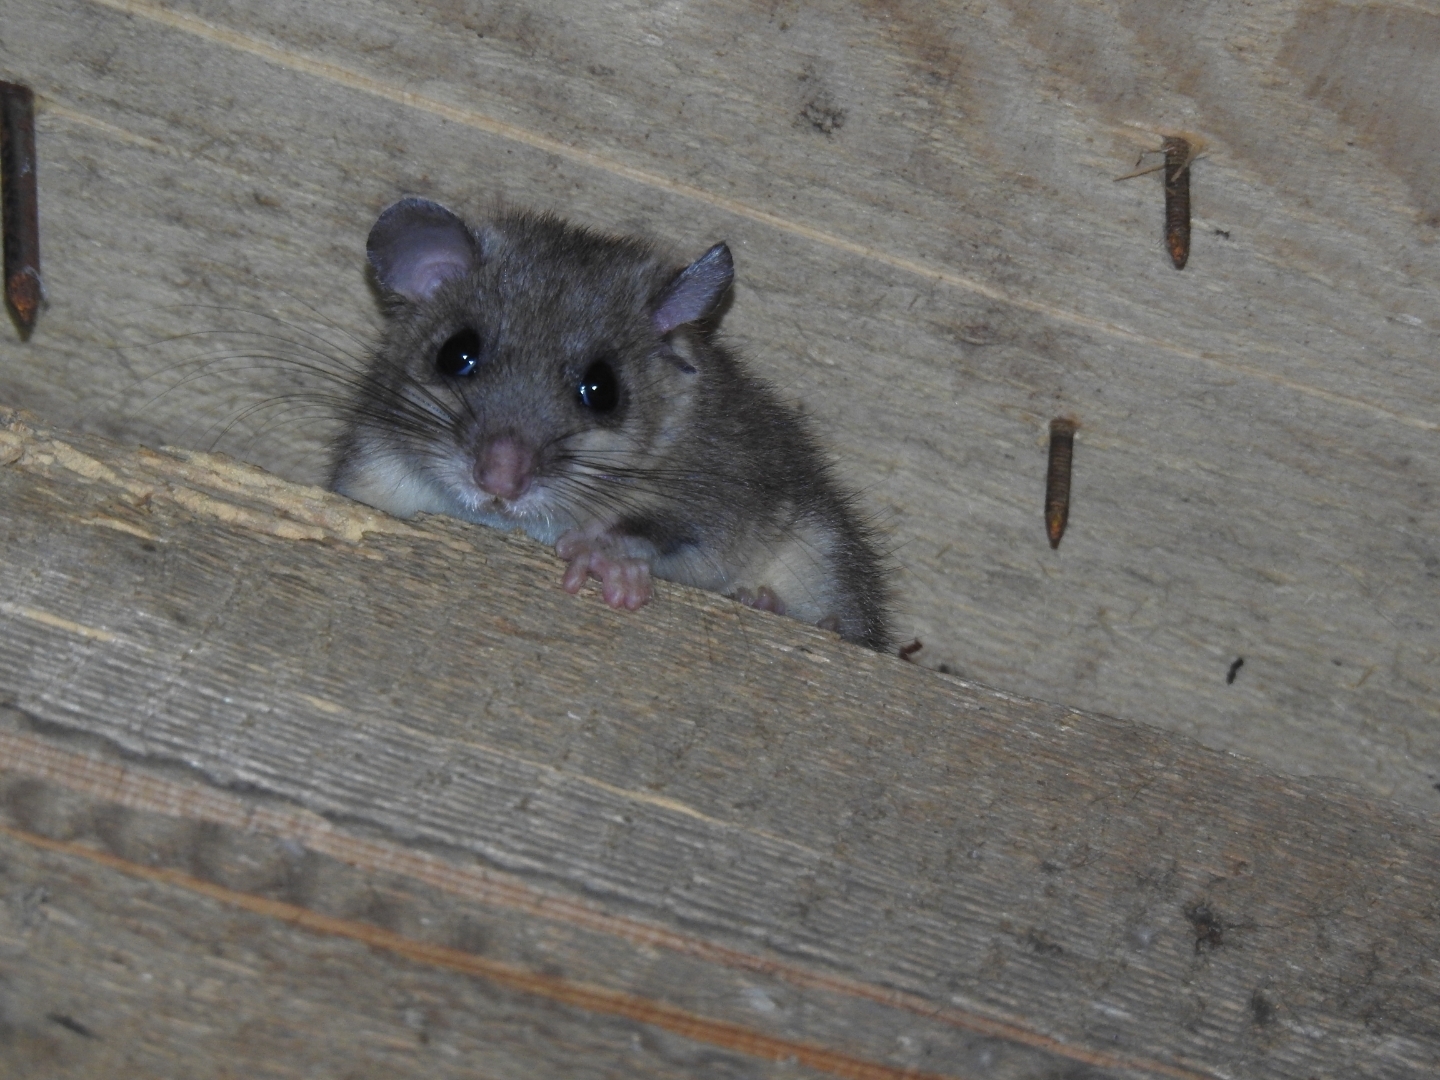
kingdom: Animalia
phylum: Chordata
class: Mammalia
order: Rodentia
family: Gliridae
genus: Glis
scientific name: Glis glis
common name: Fat dormouse
